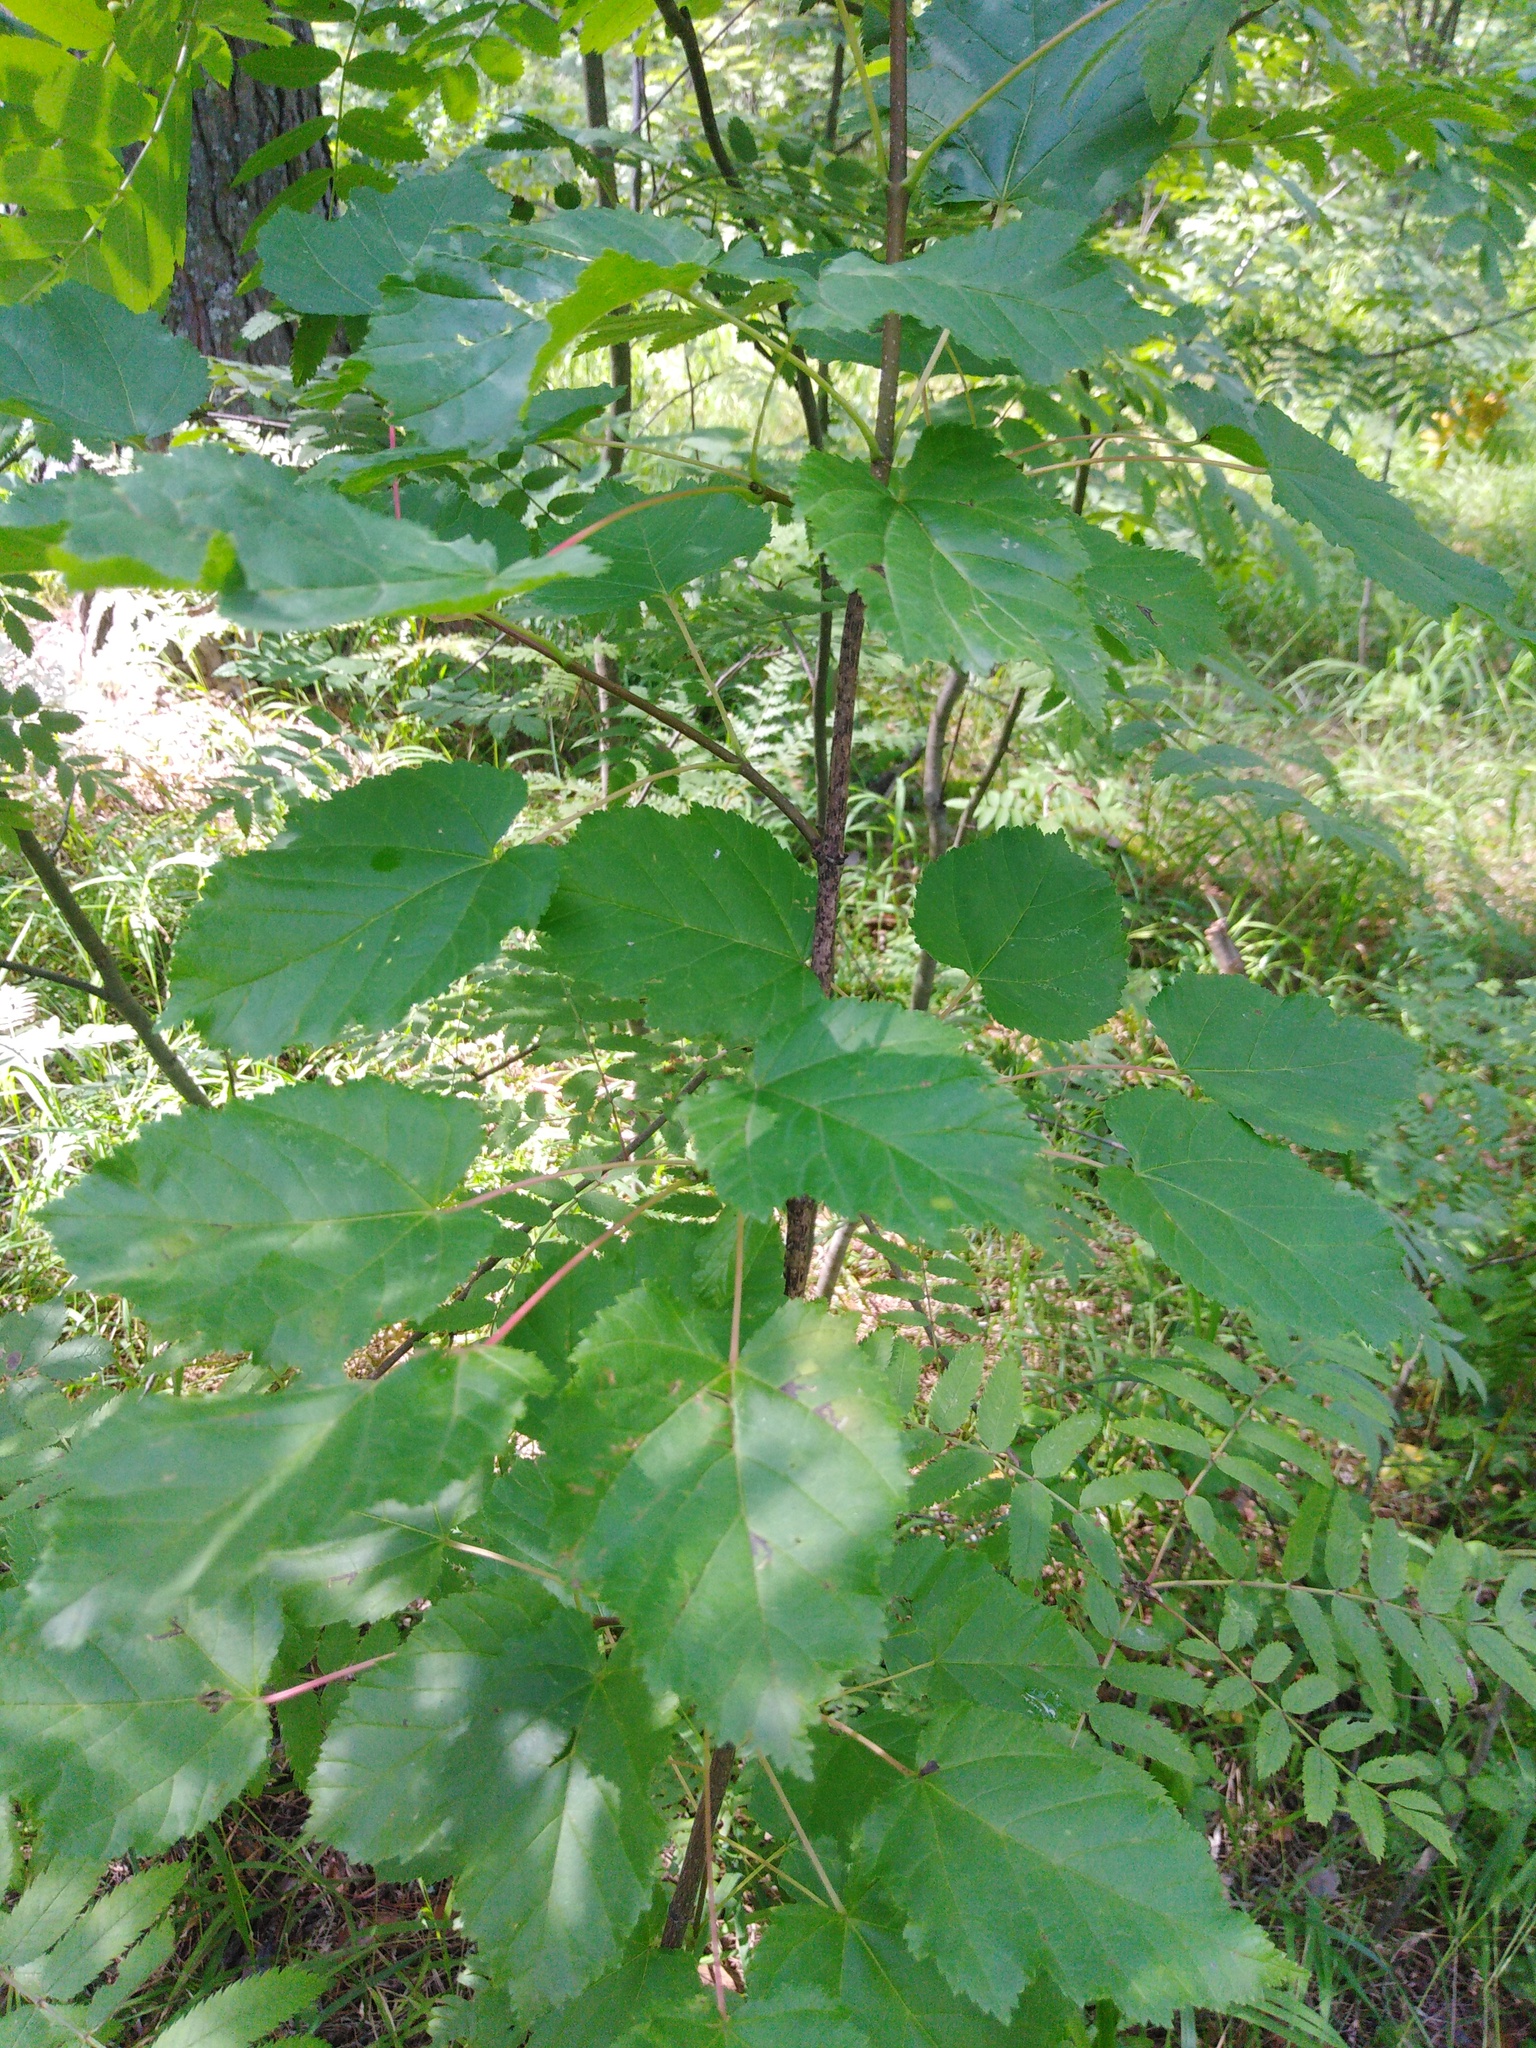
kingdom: Plantae
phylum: Tracheophyta
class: Magnoliopsida
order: Sapindales
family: Sapindaceae
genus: Acer
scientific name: Acer tataricum
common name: Tartar maple
